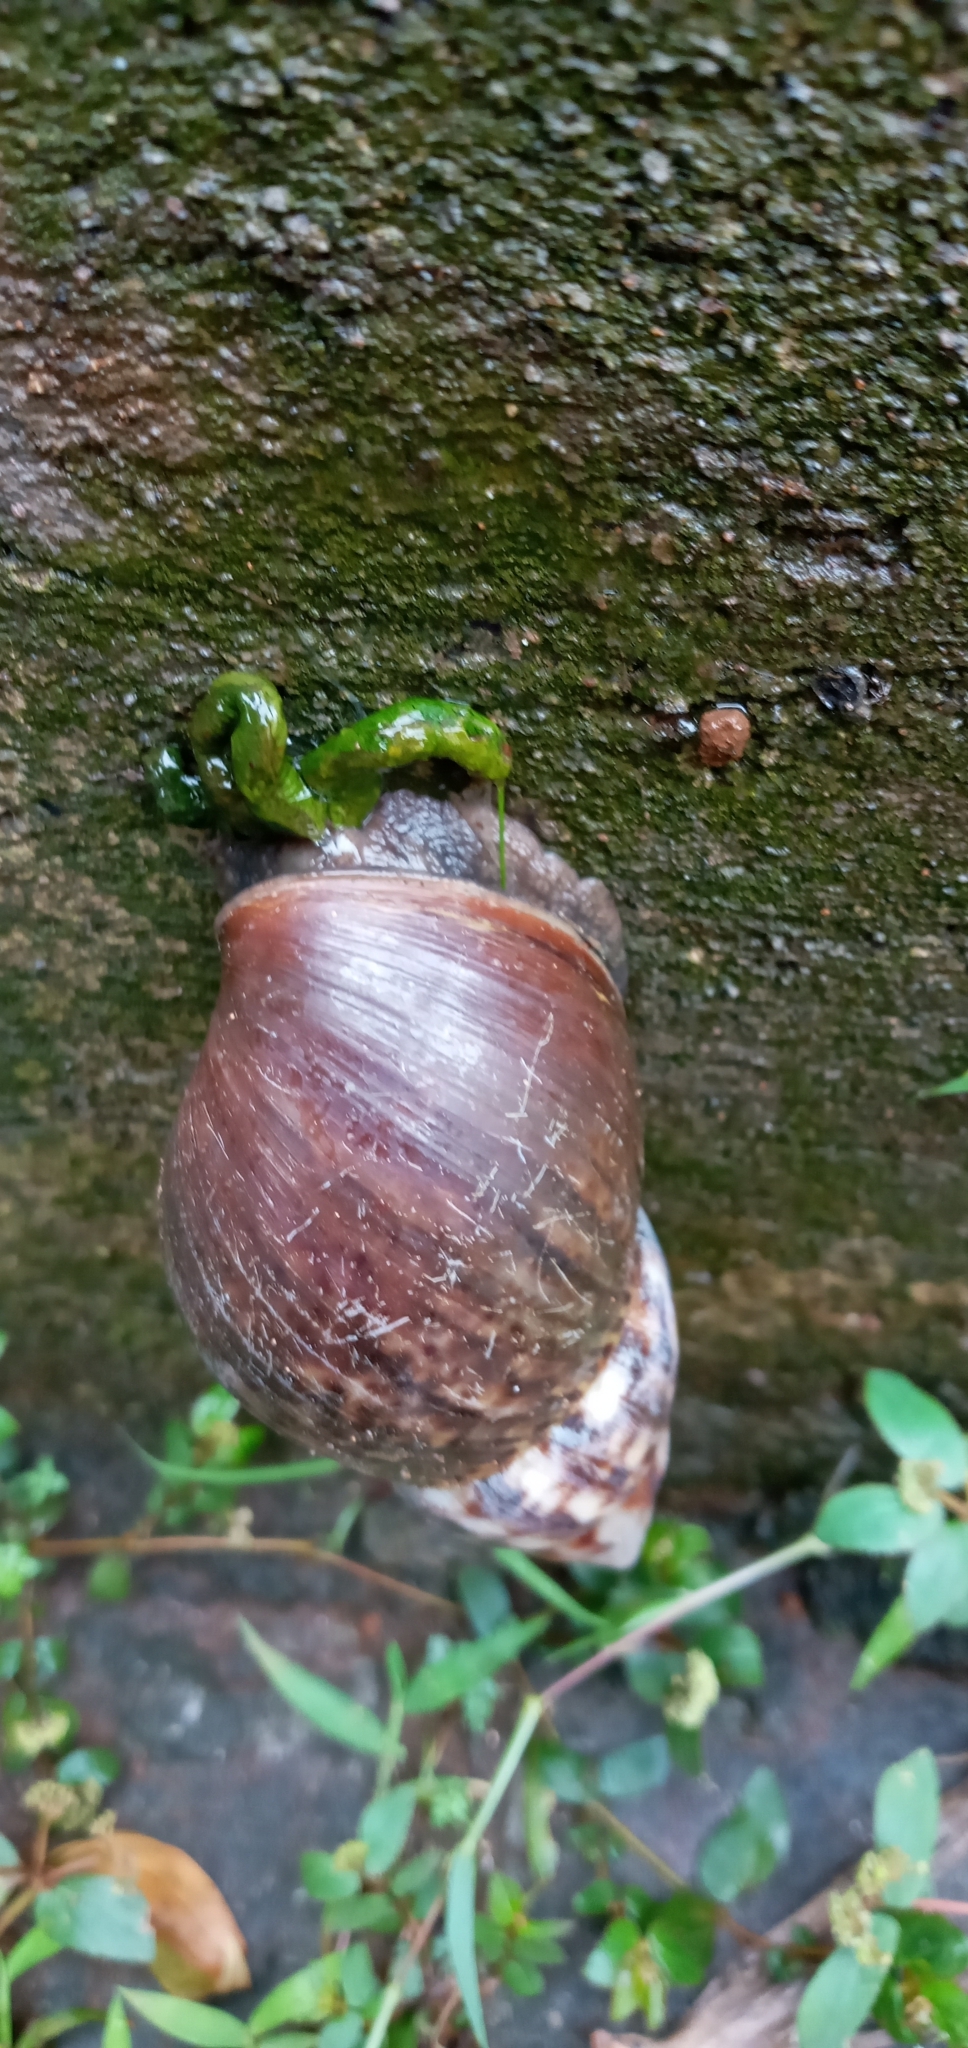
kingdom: Animalia
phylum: Mollusca
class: Gastropoda
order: Stylommatophora
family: Achatinidae
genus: Lissachatina
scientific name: Lissachatina fulica
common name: Giant african snail
